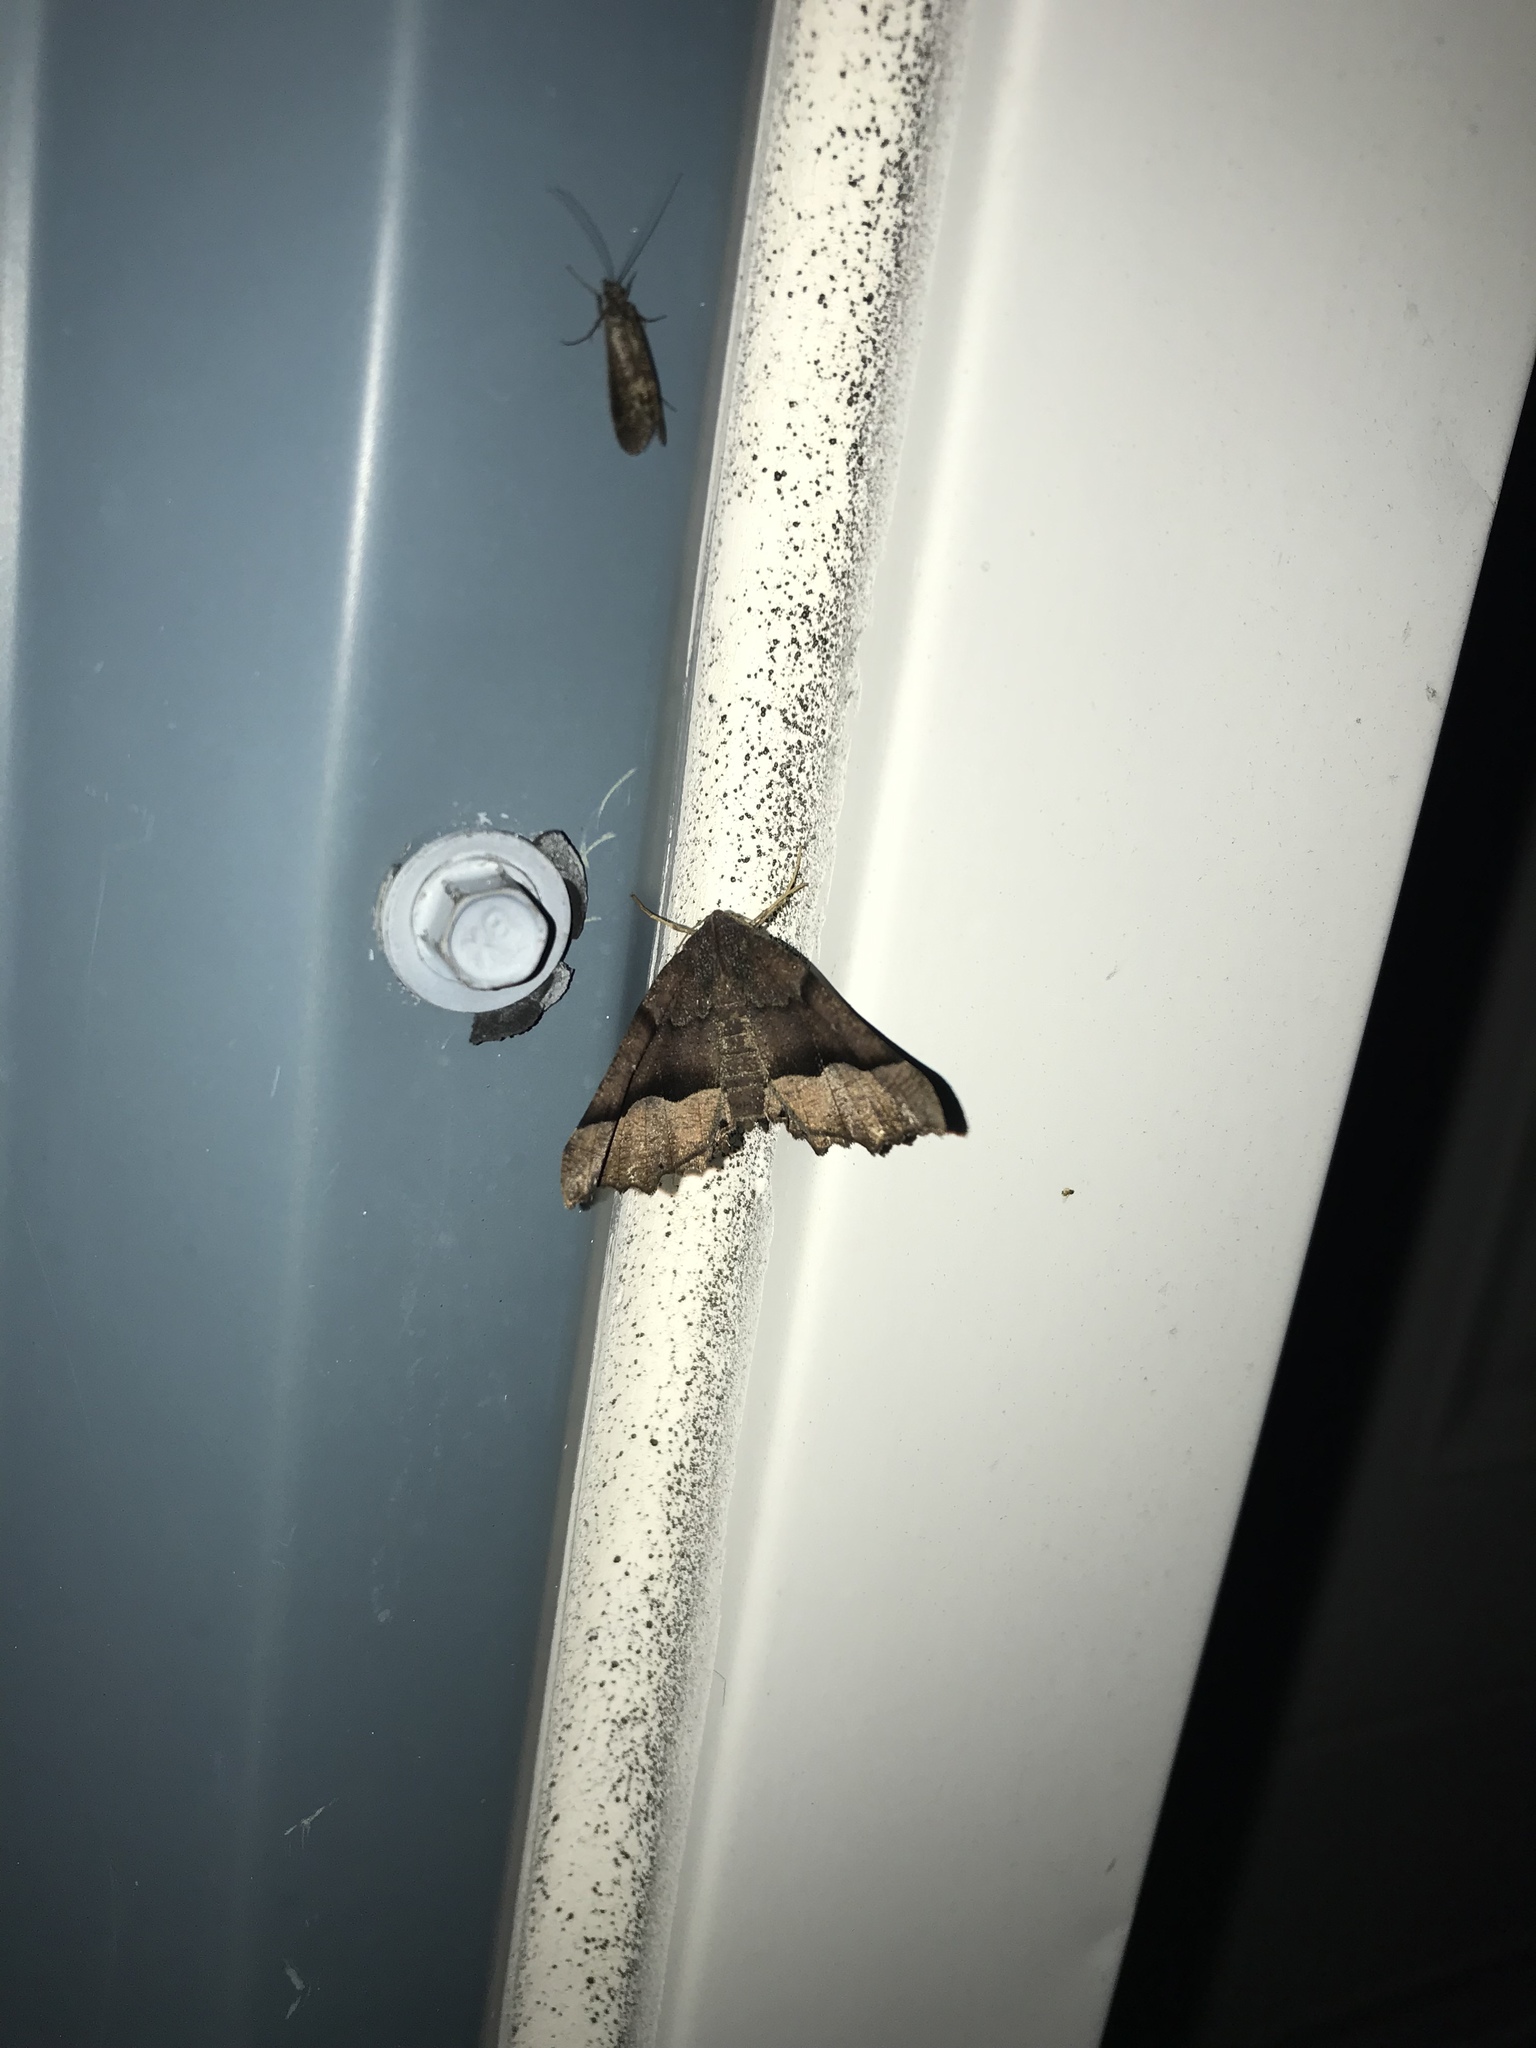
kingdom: Animalia
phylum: Arthropoda
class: Insecta
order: Lepidoptera
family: Geometridae
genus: Pero
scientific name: Pero honestaria
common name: Honest pero
